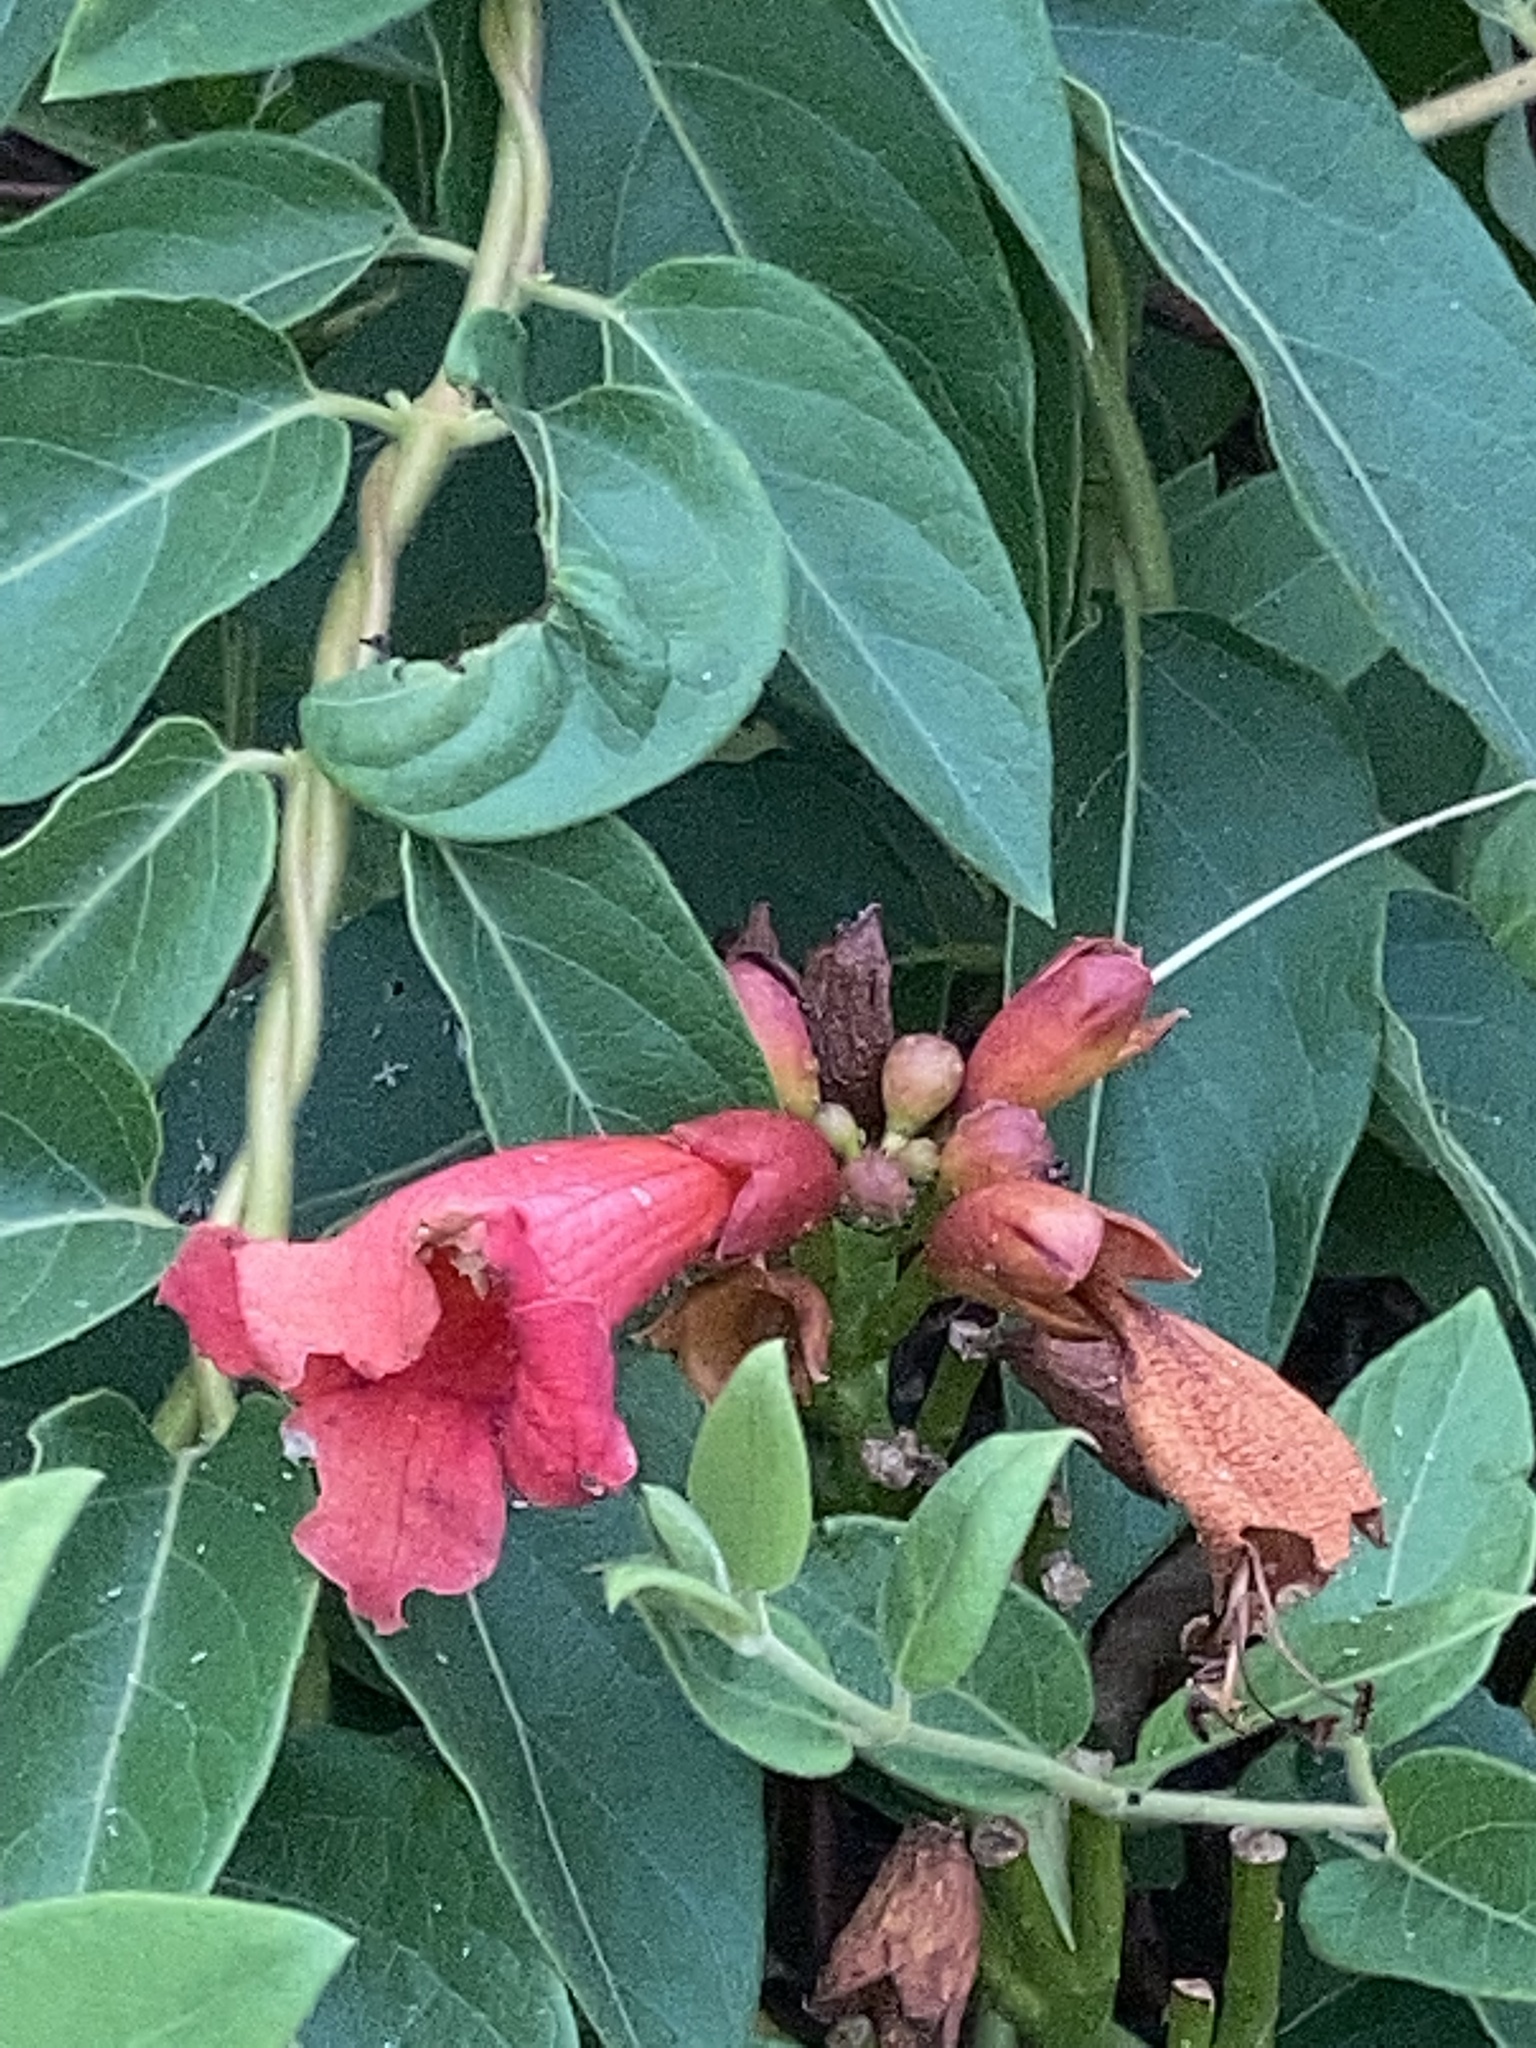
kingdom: Plantae
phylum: Tracheophyta
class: Magnoliopsida
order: Lamiales
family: Bignoniaceae
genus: Campsis
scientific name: Campsis radicans
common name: Trumpet-creeper
